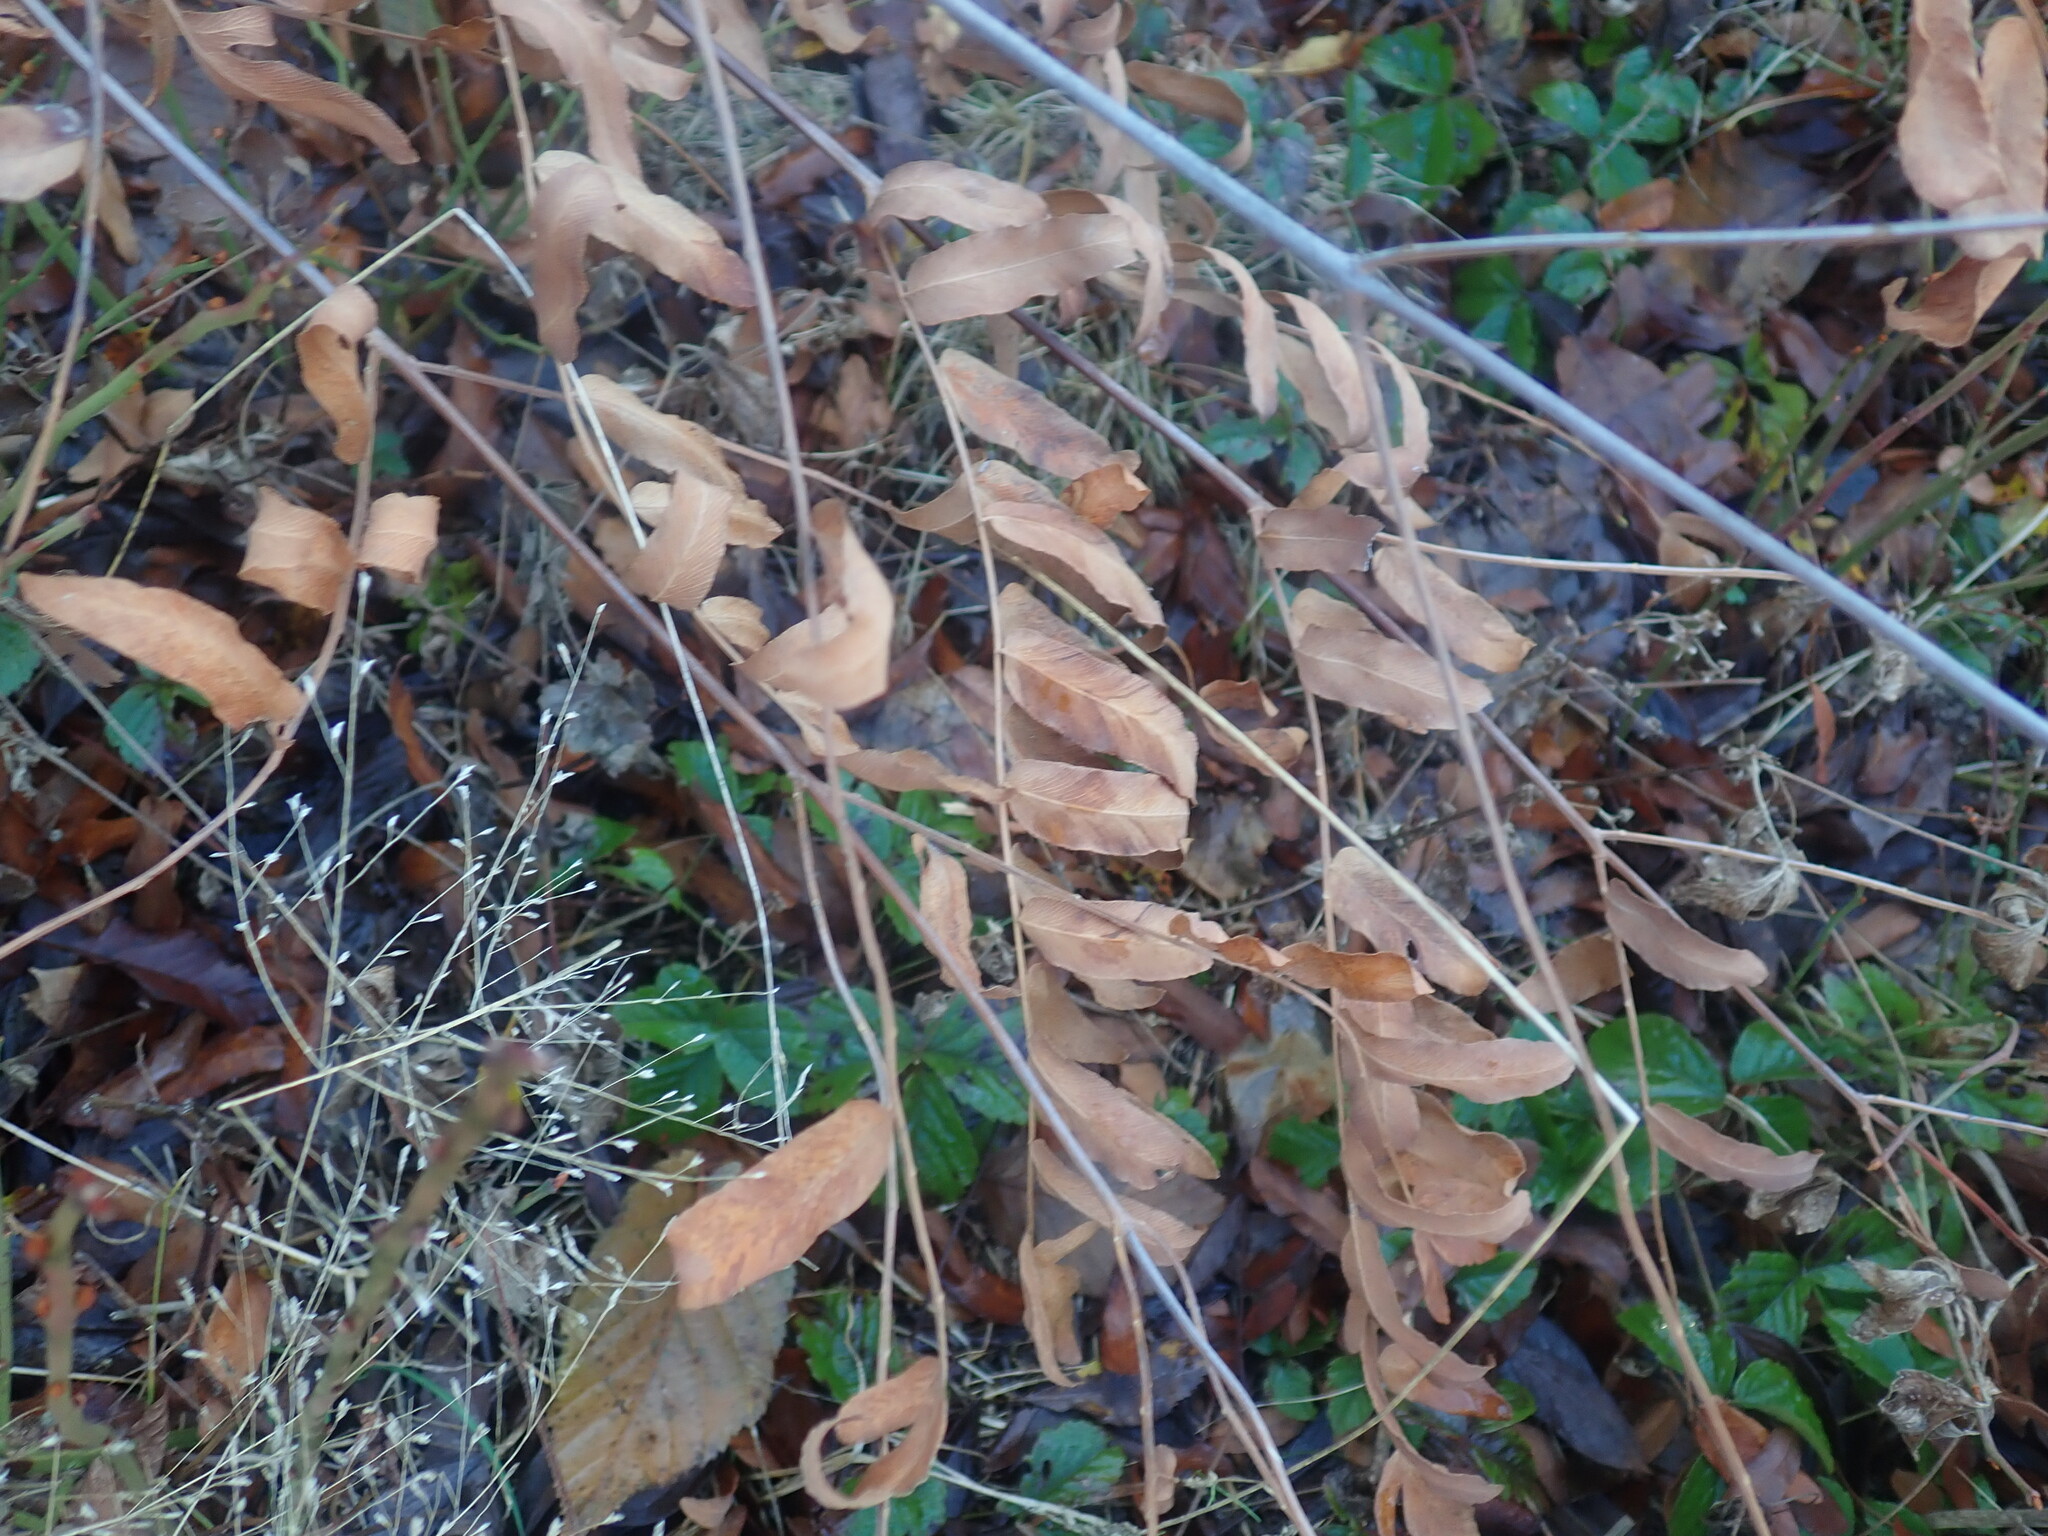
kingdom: Plantae
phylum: Tracheophyta
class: Polypodiopsida
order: Osmundales
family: Osmundaceae
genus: Osmunda
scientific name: Osmunda spectabilis
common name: American royal fern
